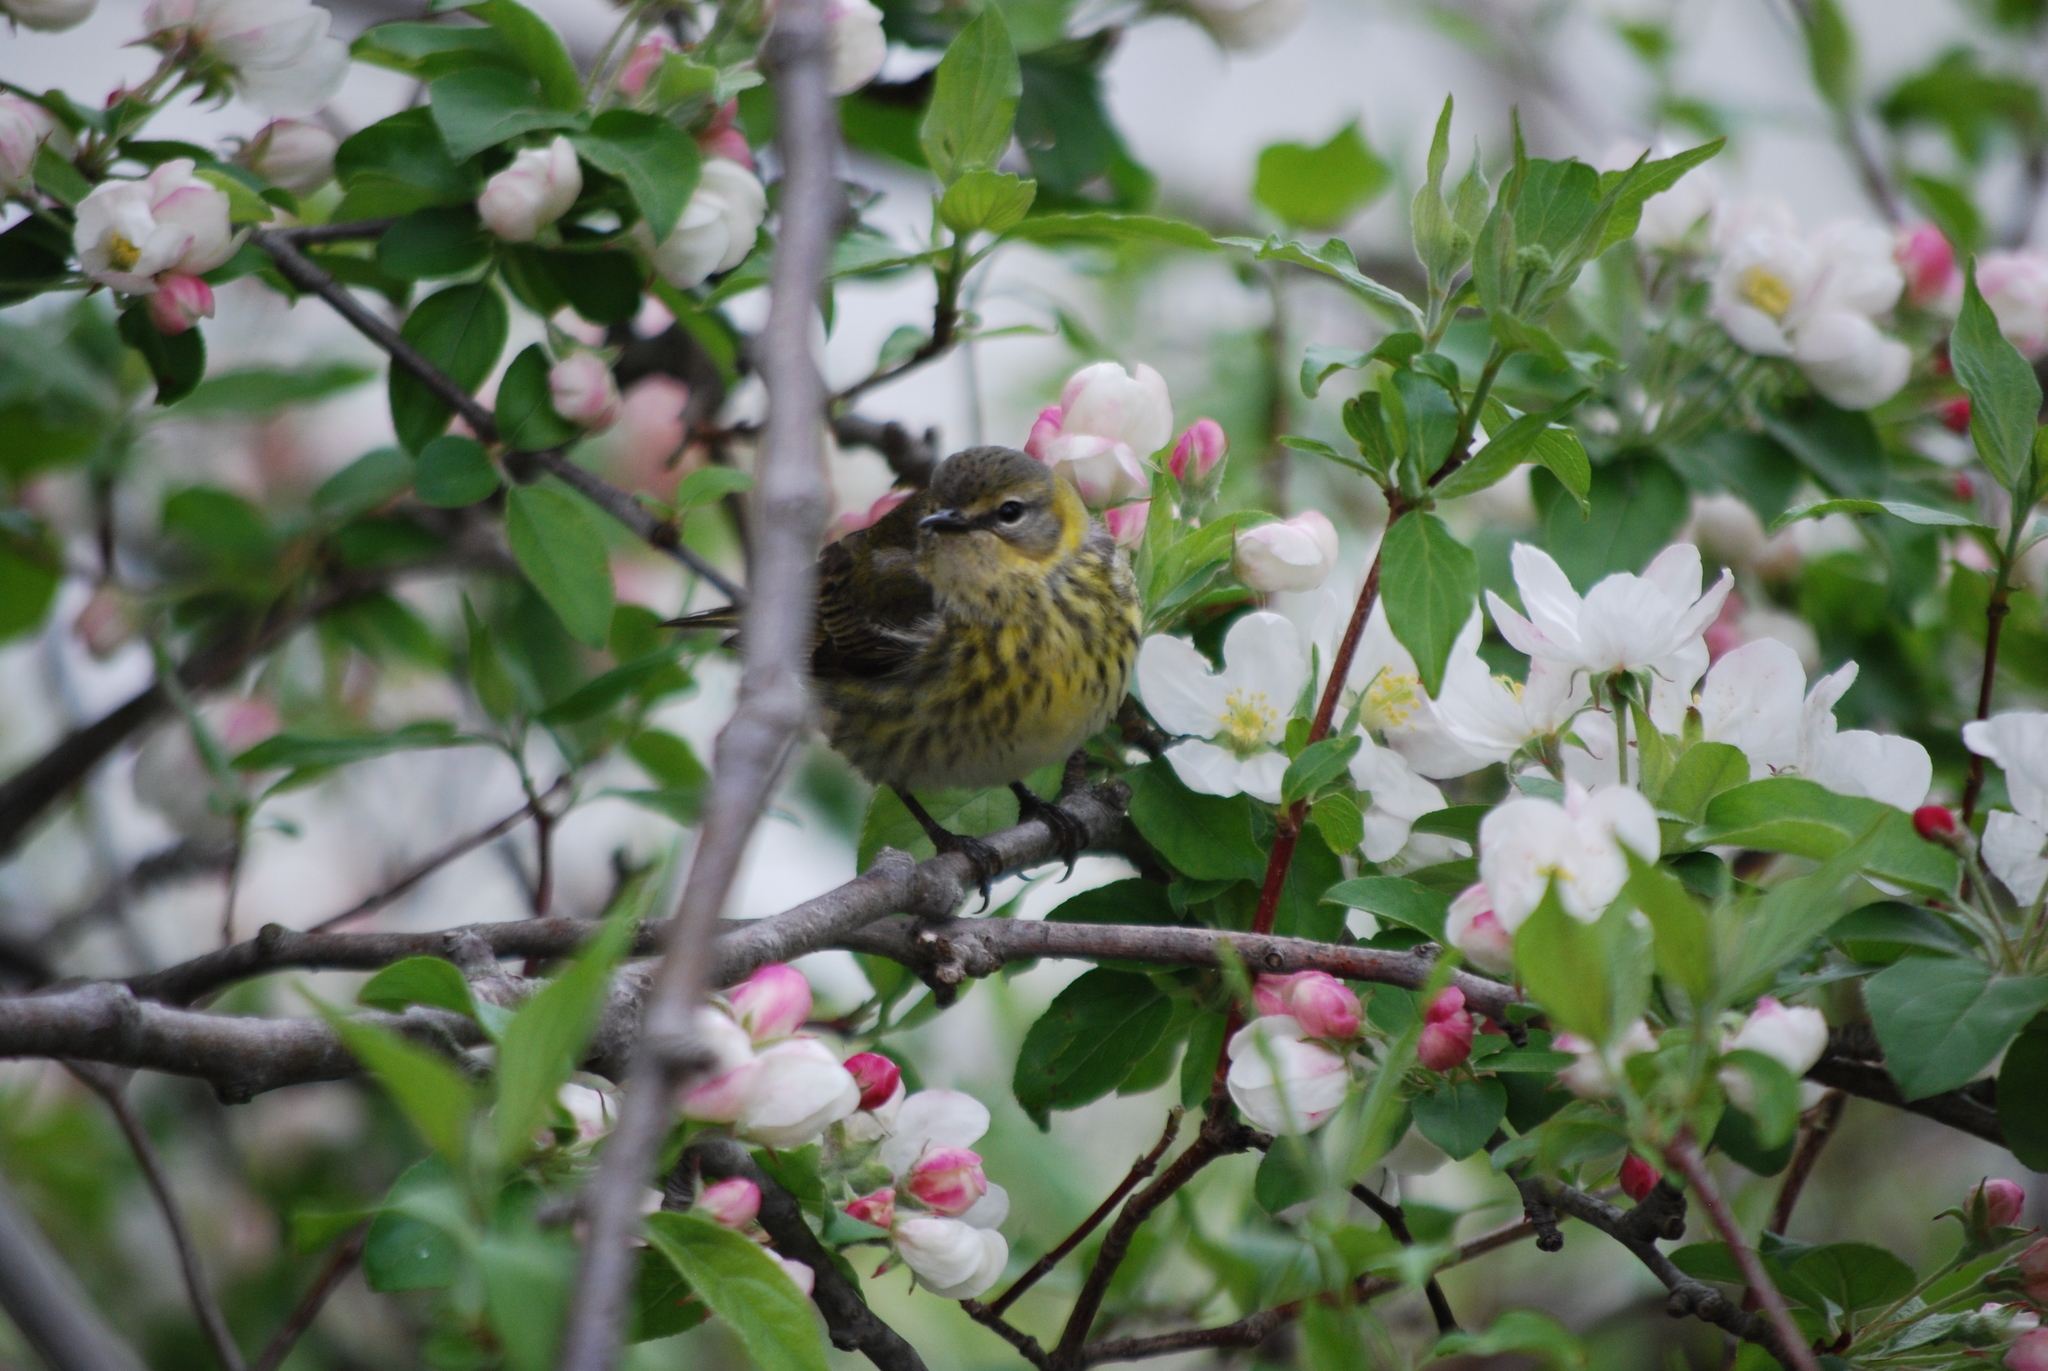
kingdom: Animalia
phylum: Chordata
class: Aves
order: Passeriformes
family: Parulidae
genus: Setophaga
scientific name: Setophaga tigrina
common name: Cape may warbler
